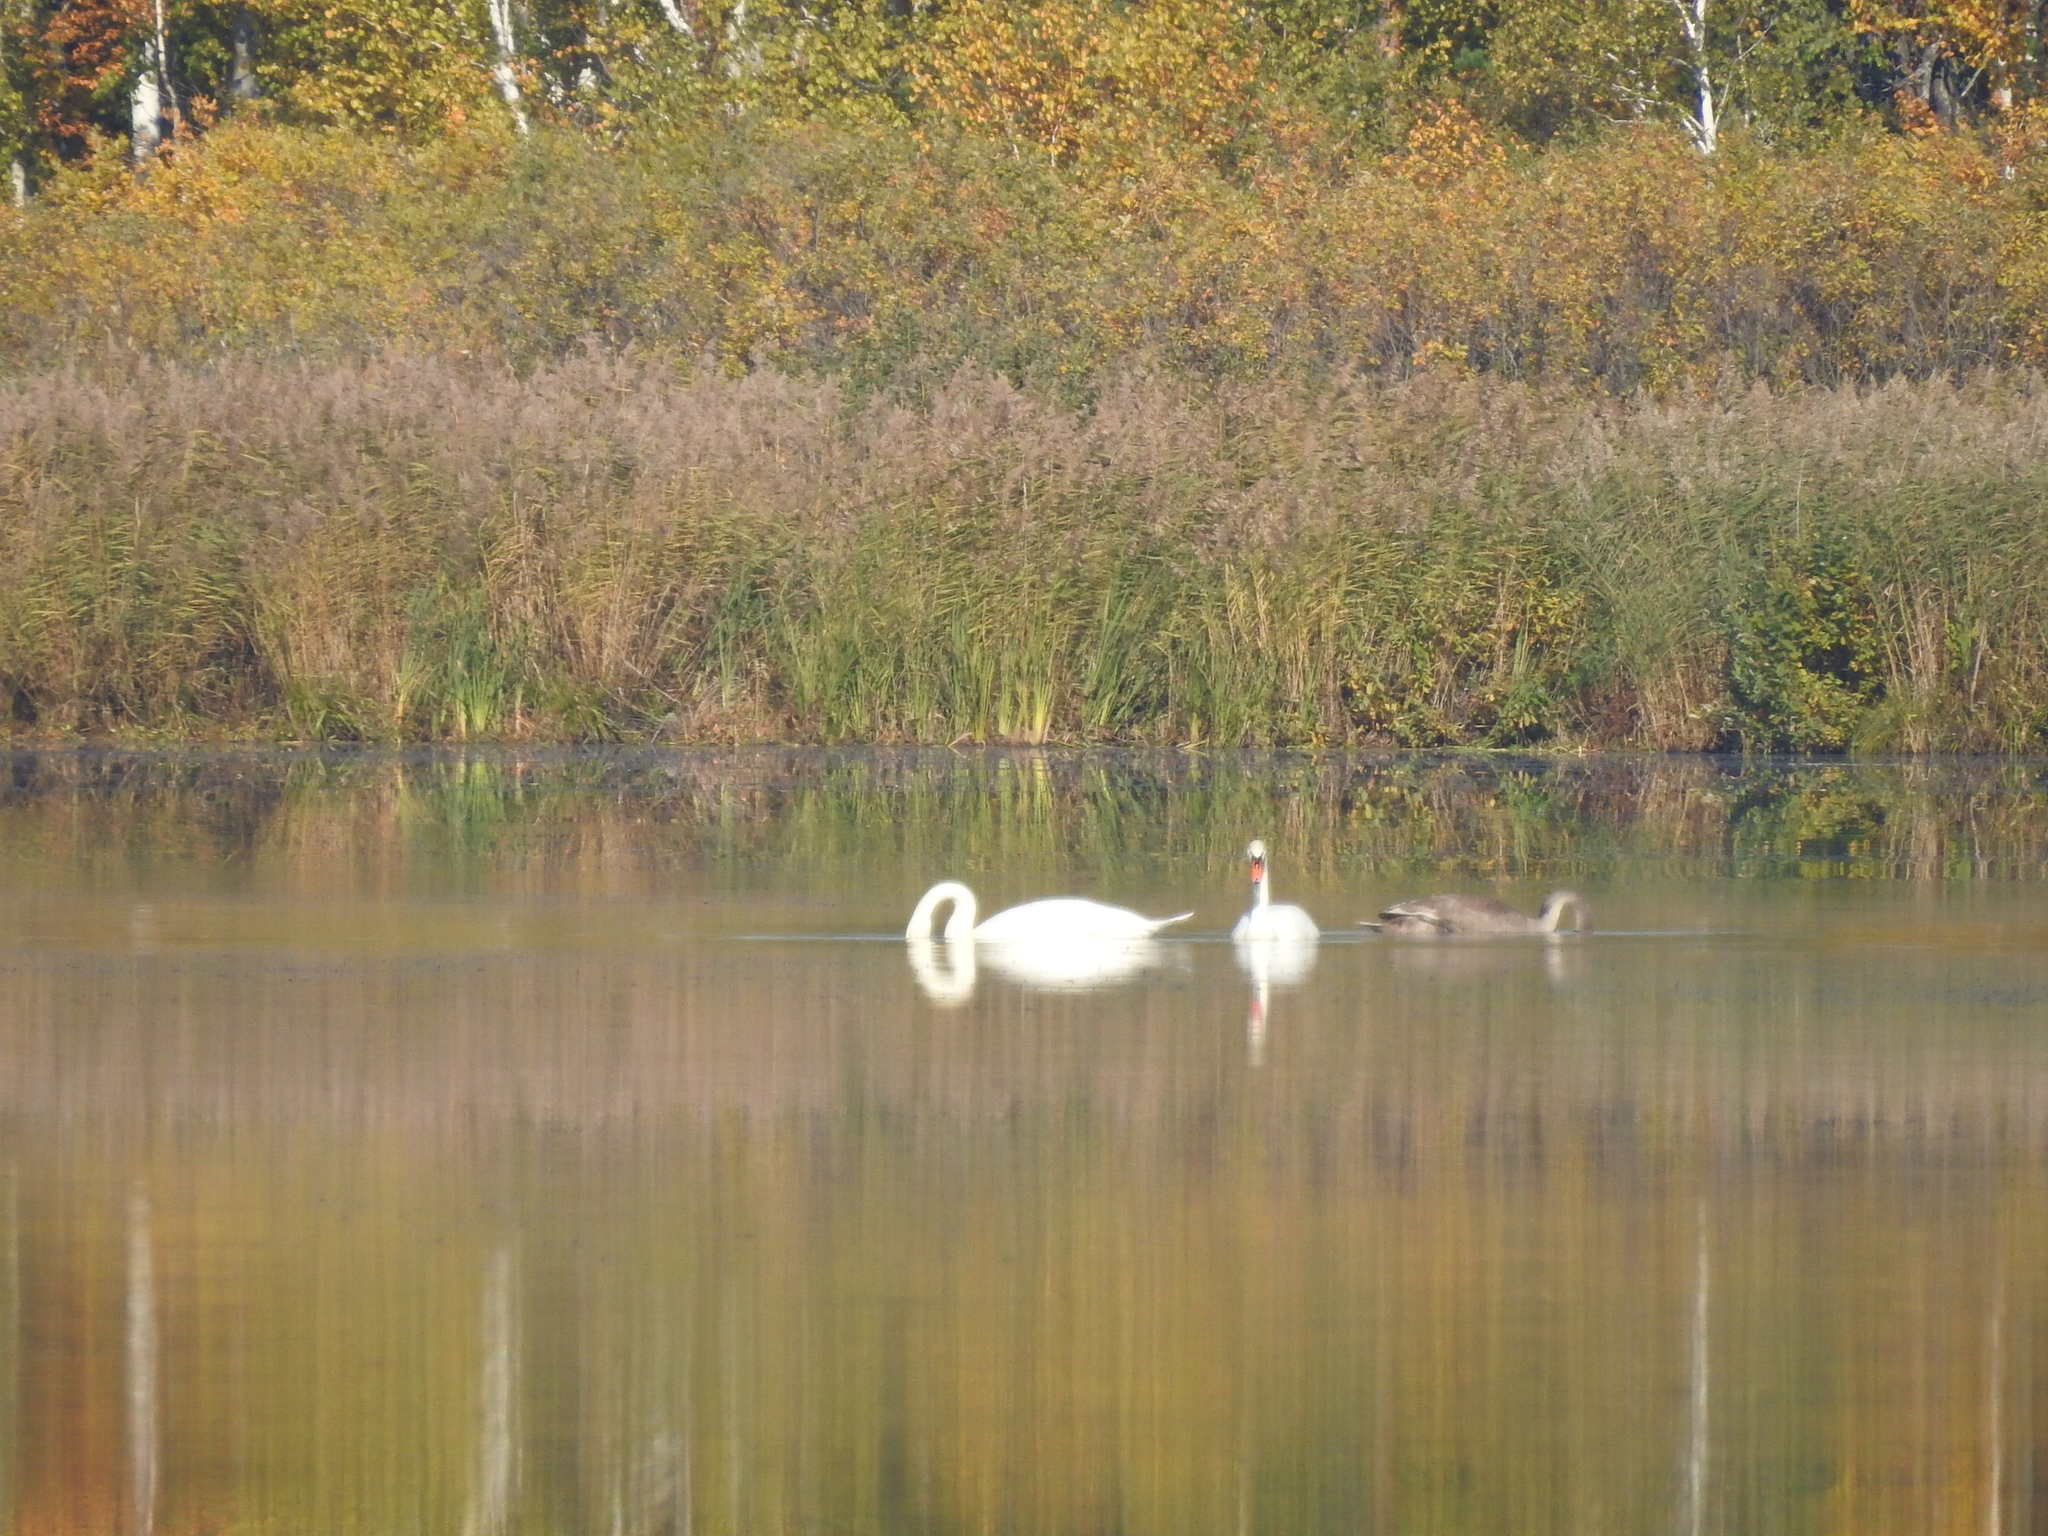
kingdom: Animalia
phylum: Chordata
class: Aves
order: Anseriformes
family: Anatidae
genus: Cygnus
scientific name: Cygnus olor
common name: Mute swan
